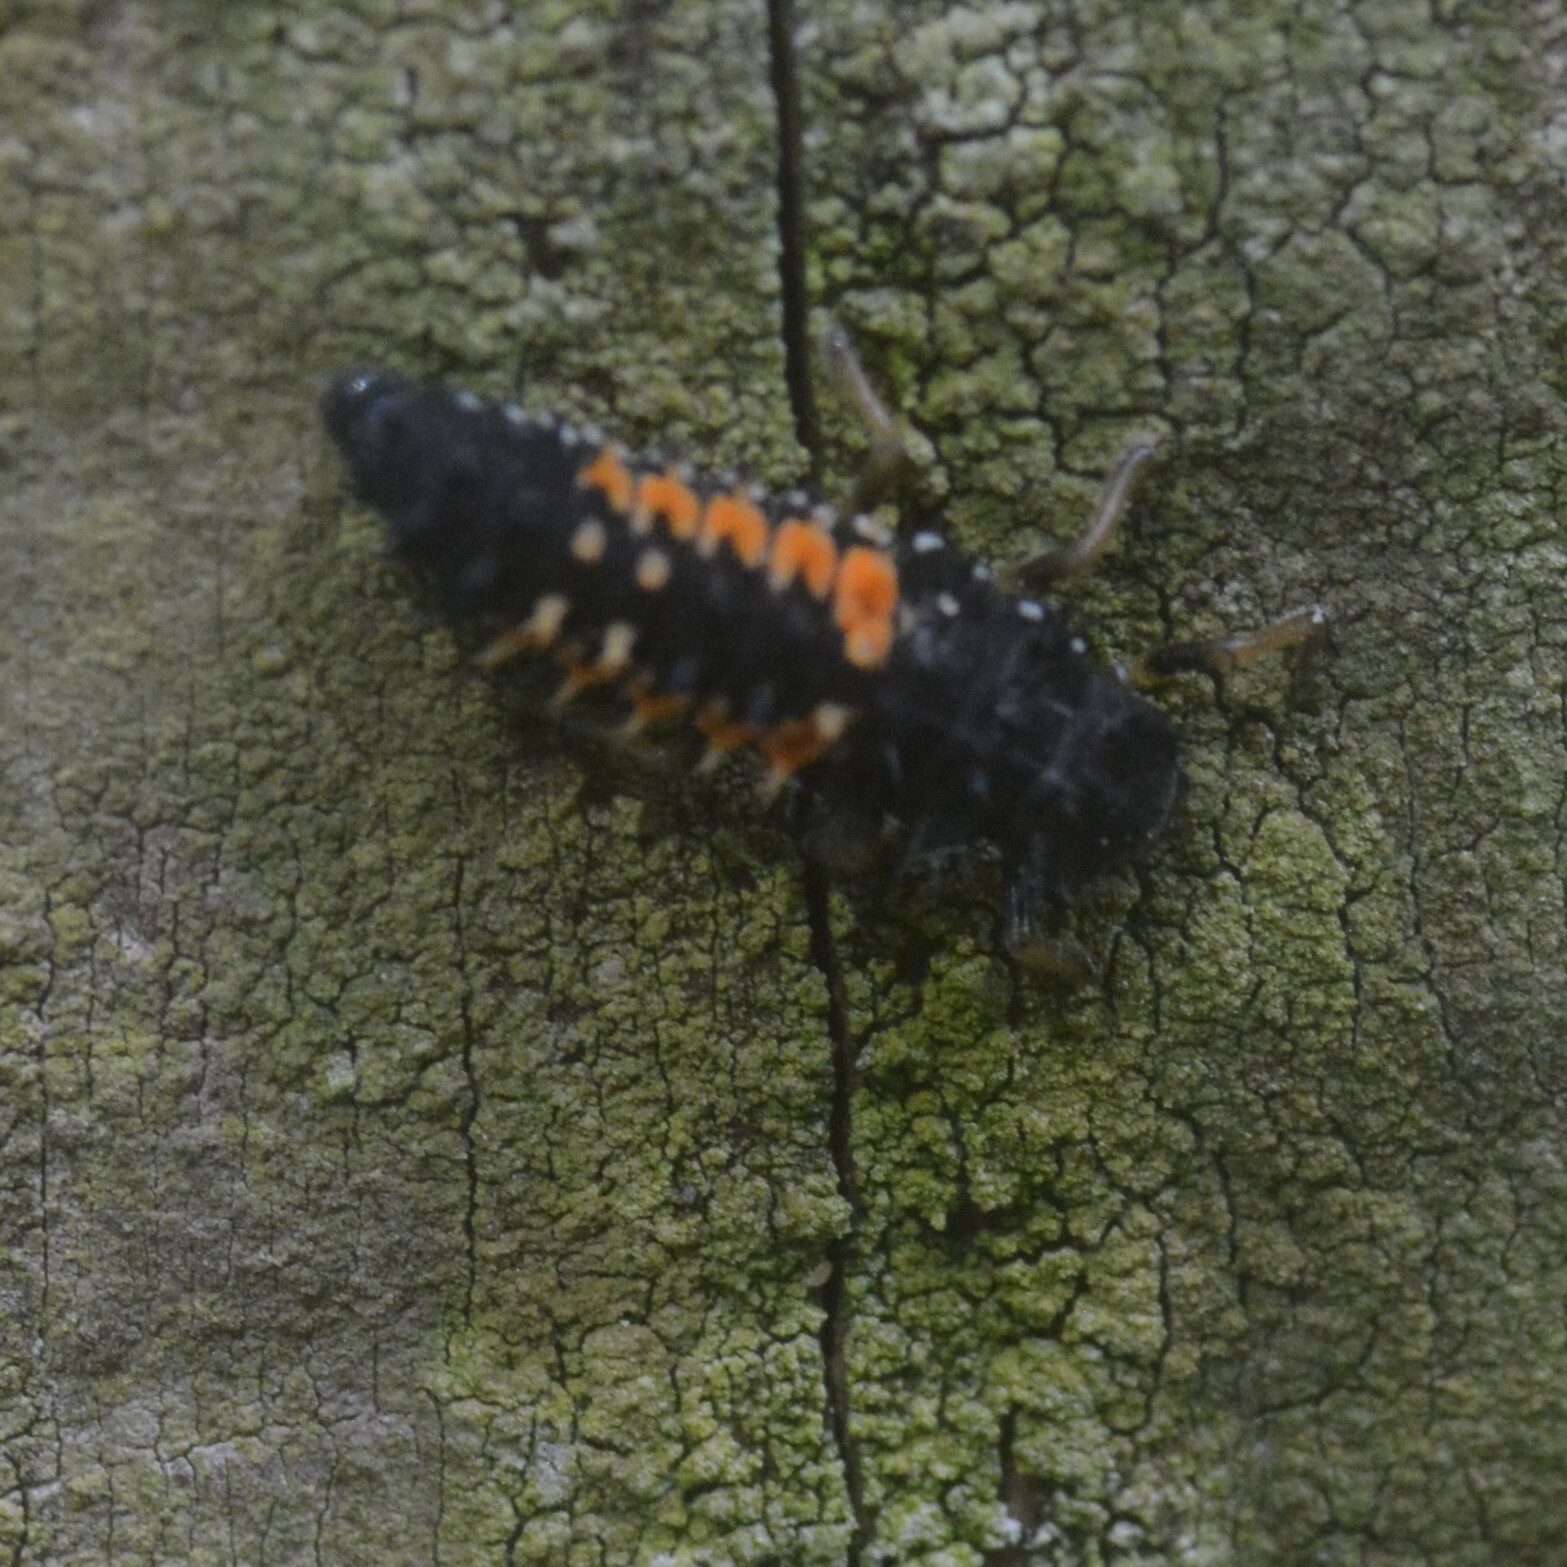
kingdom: Animalia
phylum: Arthropoda
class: Insecta
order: Coleoptera
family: Coccinellidae
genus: Harmonia
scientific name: Harmonia axyridis
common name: Harlequin ladybird
